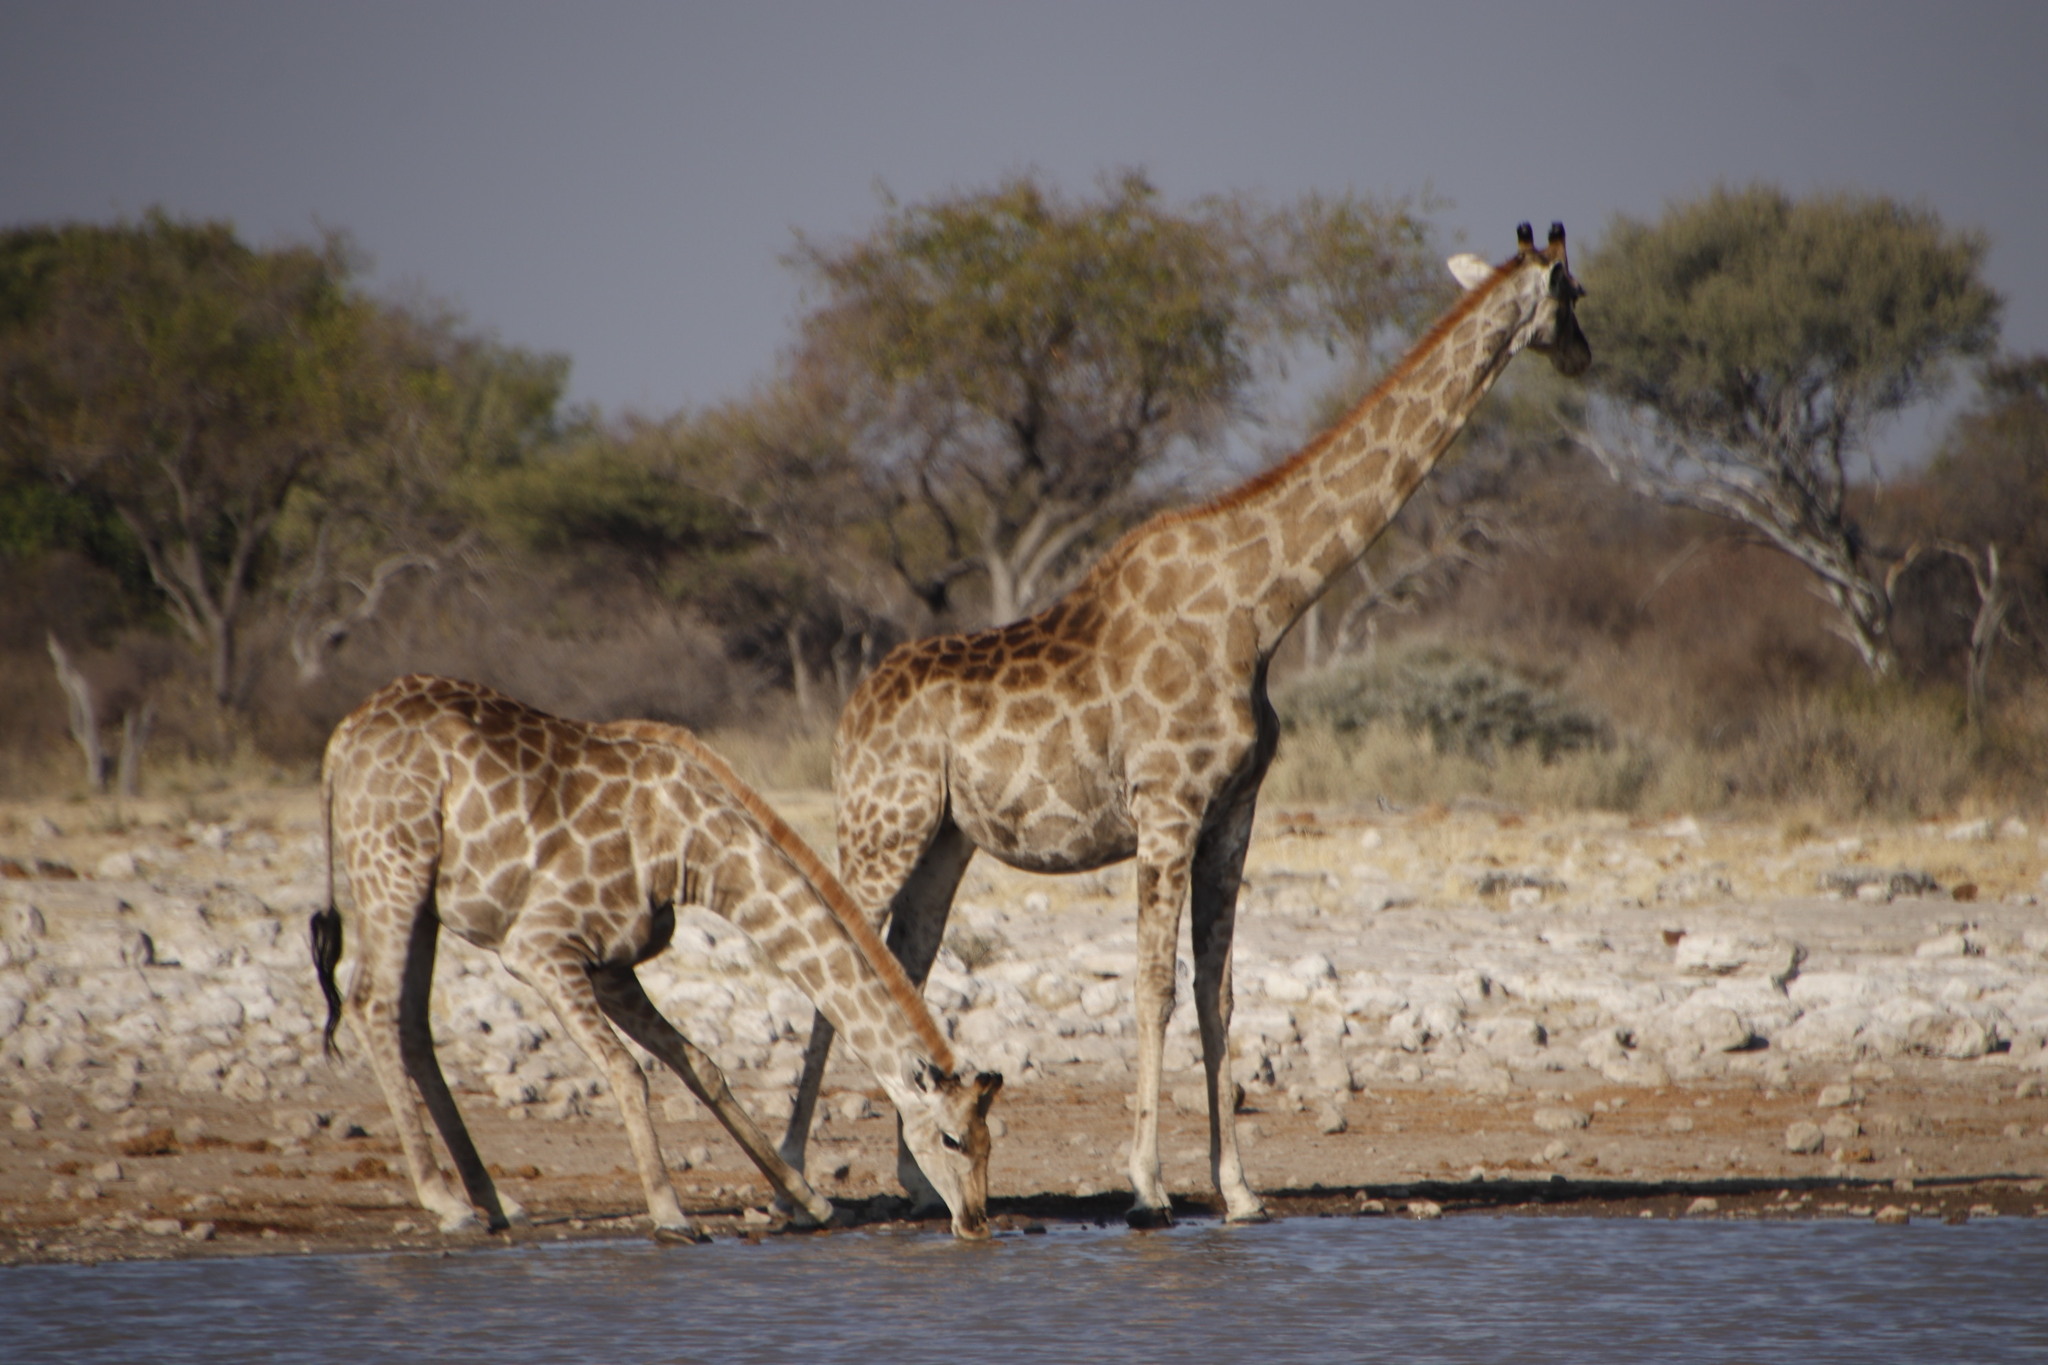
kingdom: Animalia
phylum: Chordata
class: Mammalia
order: Artiodactyla
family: Giraffidae
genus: Giraffa
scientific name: Giraffa giraffa
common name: Southern giraffe
